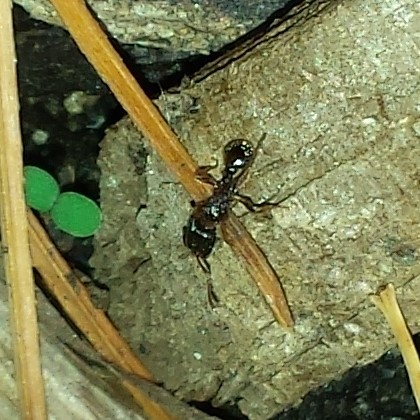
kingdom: Animalia
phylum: Arthropoda
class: Insecta
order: Hymenoptera
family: Formicidae
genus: Tetramorium
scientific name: Tetramorium immigrans
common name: Pavement ant
